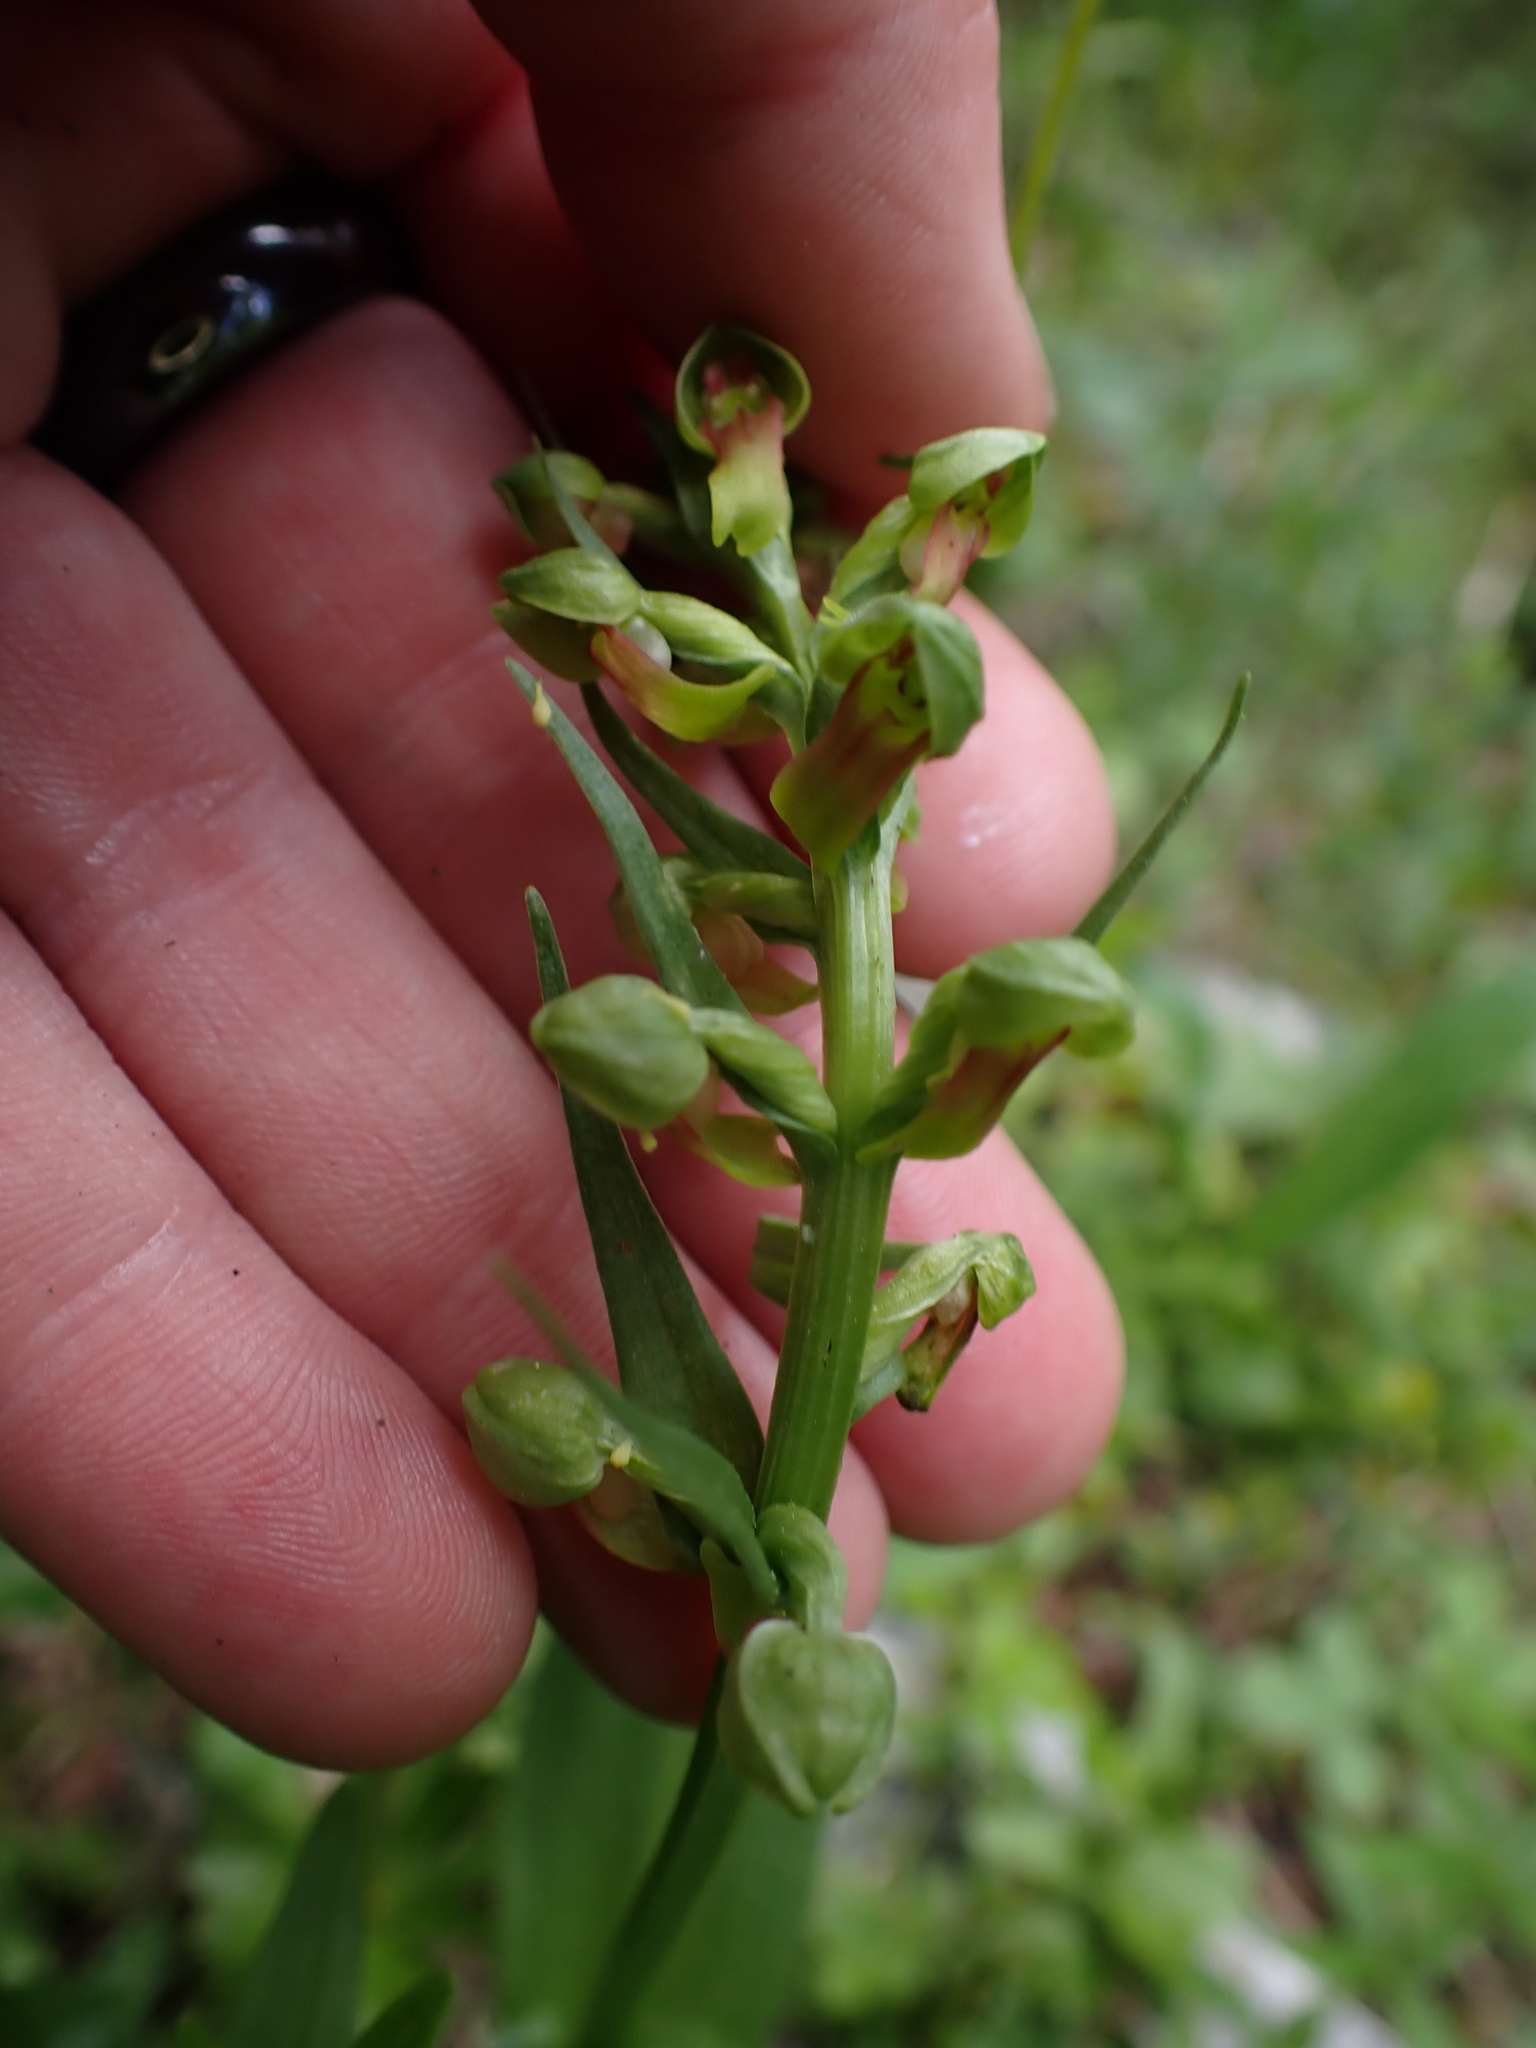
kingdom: Plantae
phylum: Tracheophyta
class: Liliopsida
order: Asparagales
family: Orchidaceae
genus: Dactylorhiza
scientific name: Dactylorhiza viridis
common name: Longbract frog orchid
